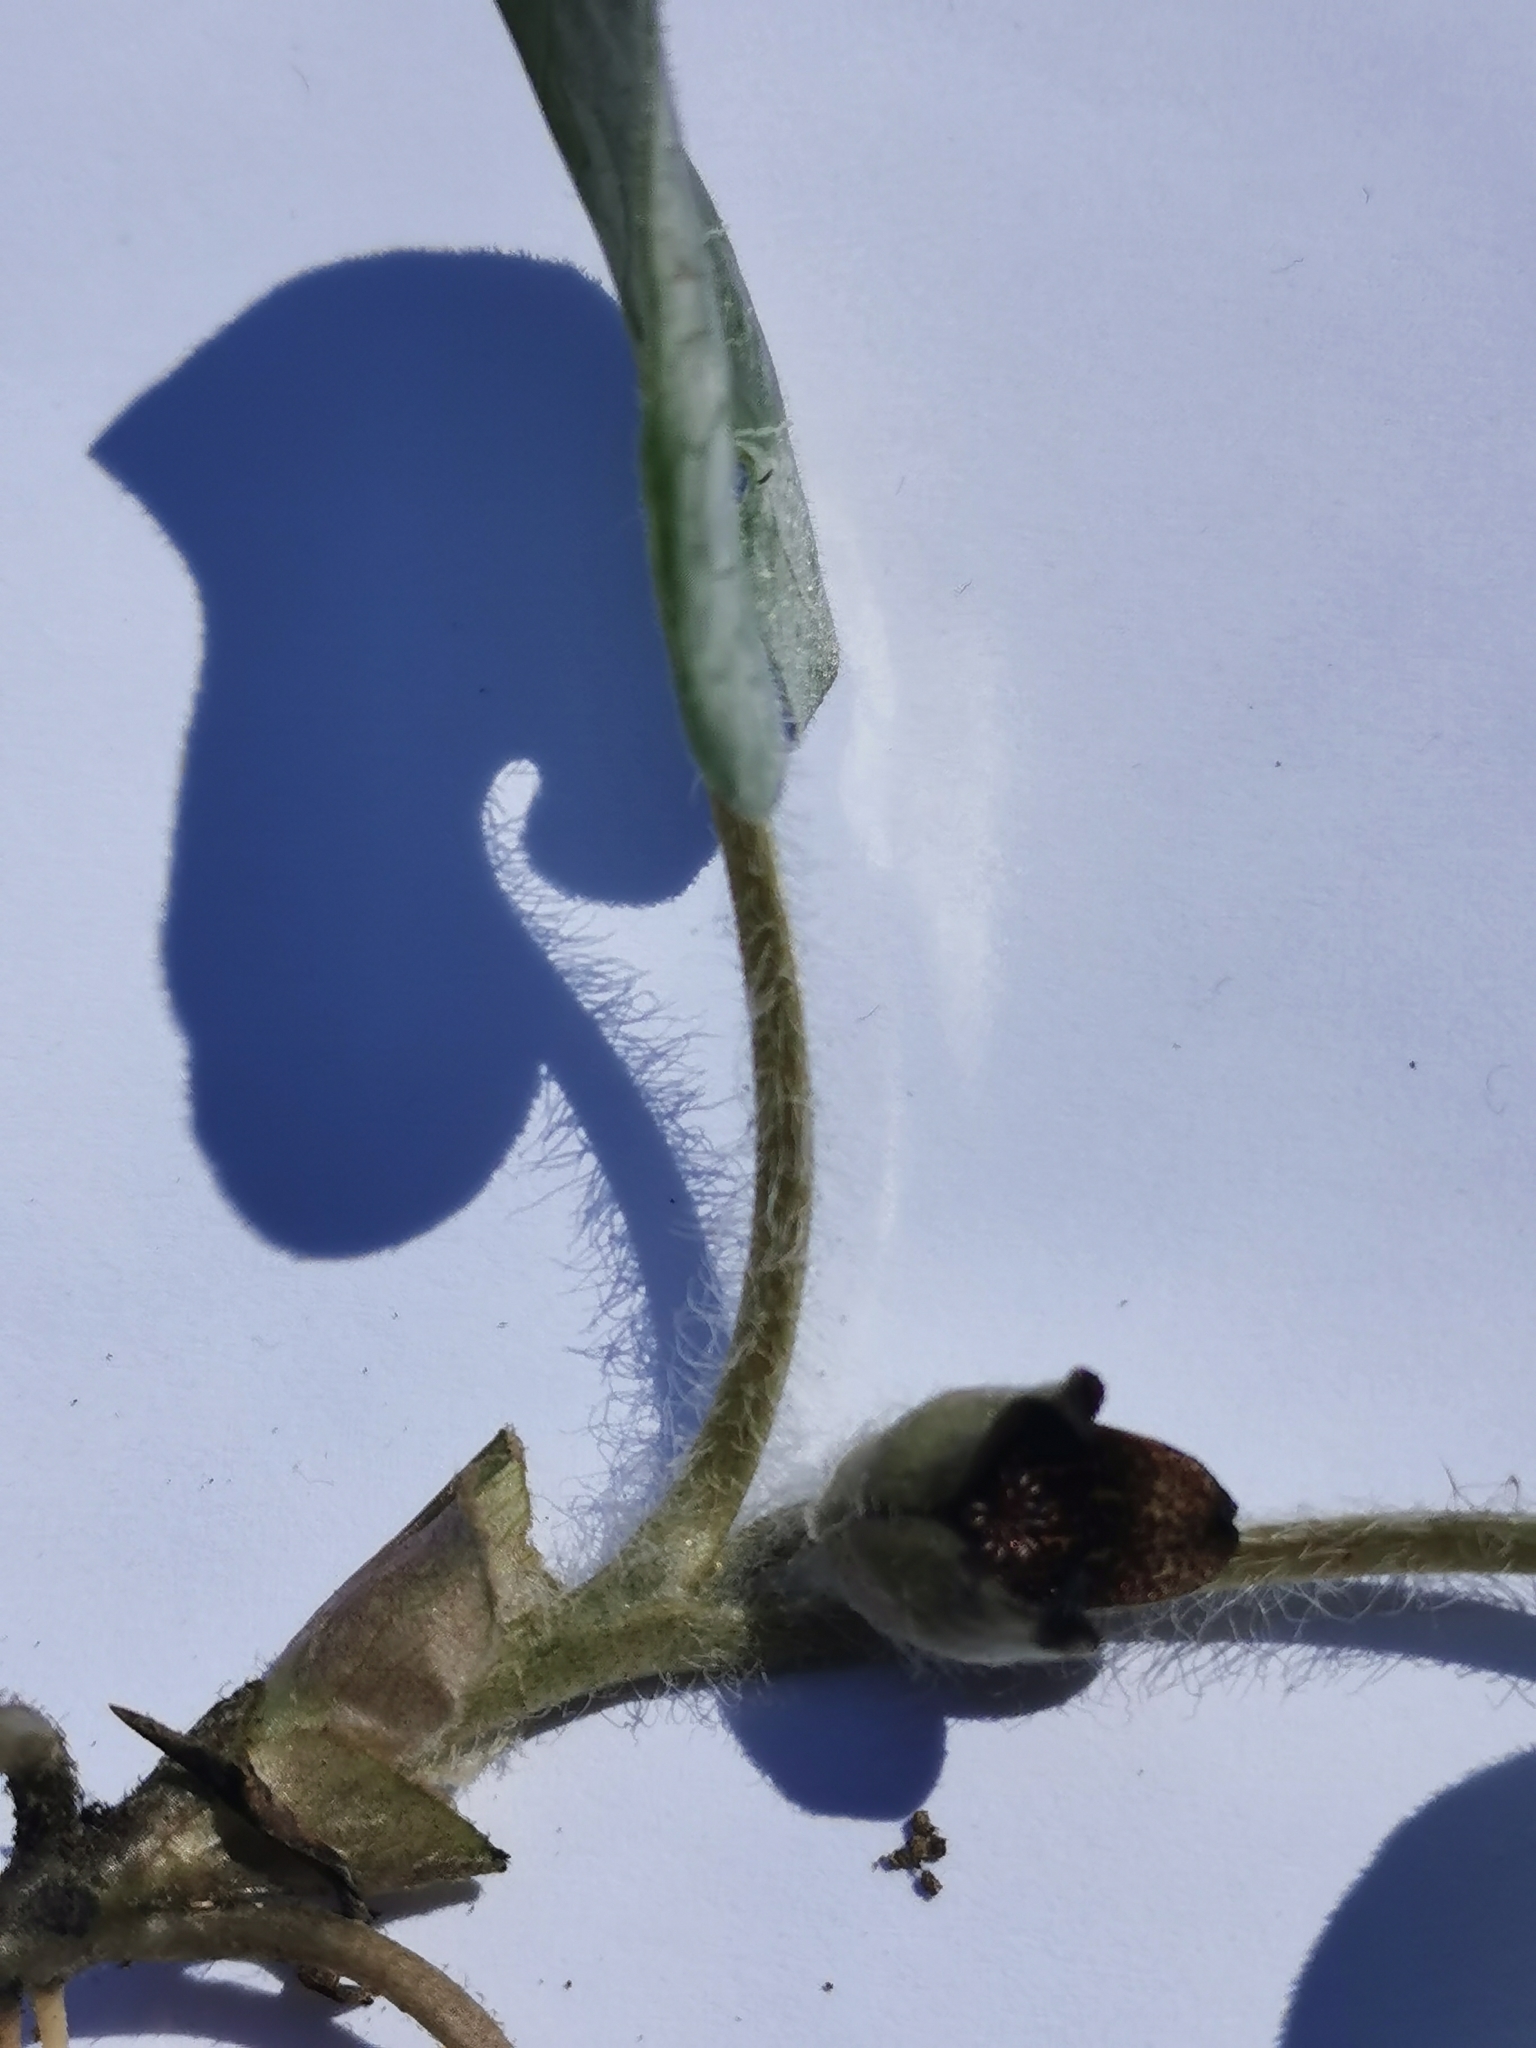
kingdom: Plantae
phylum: Tracheophyta
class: Magnoliopsida
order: Piperales
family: Aristolochiaceae
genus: Asarum
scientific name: Asarum europaeum
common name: Asarabacca
